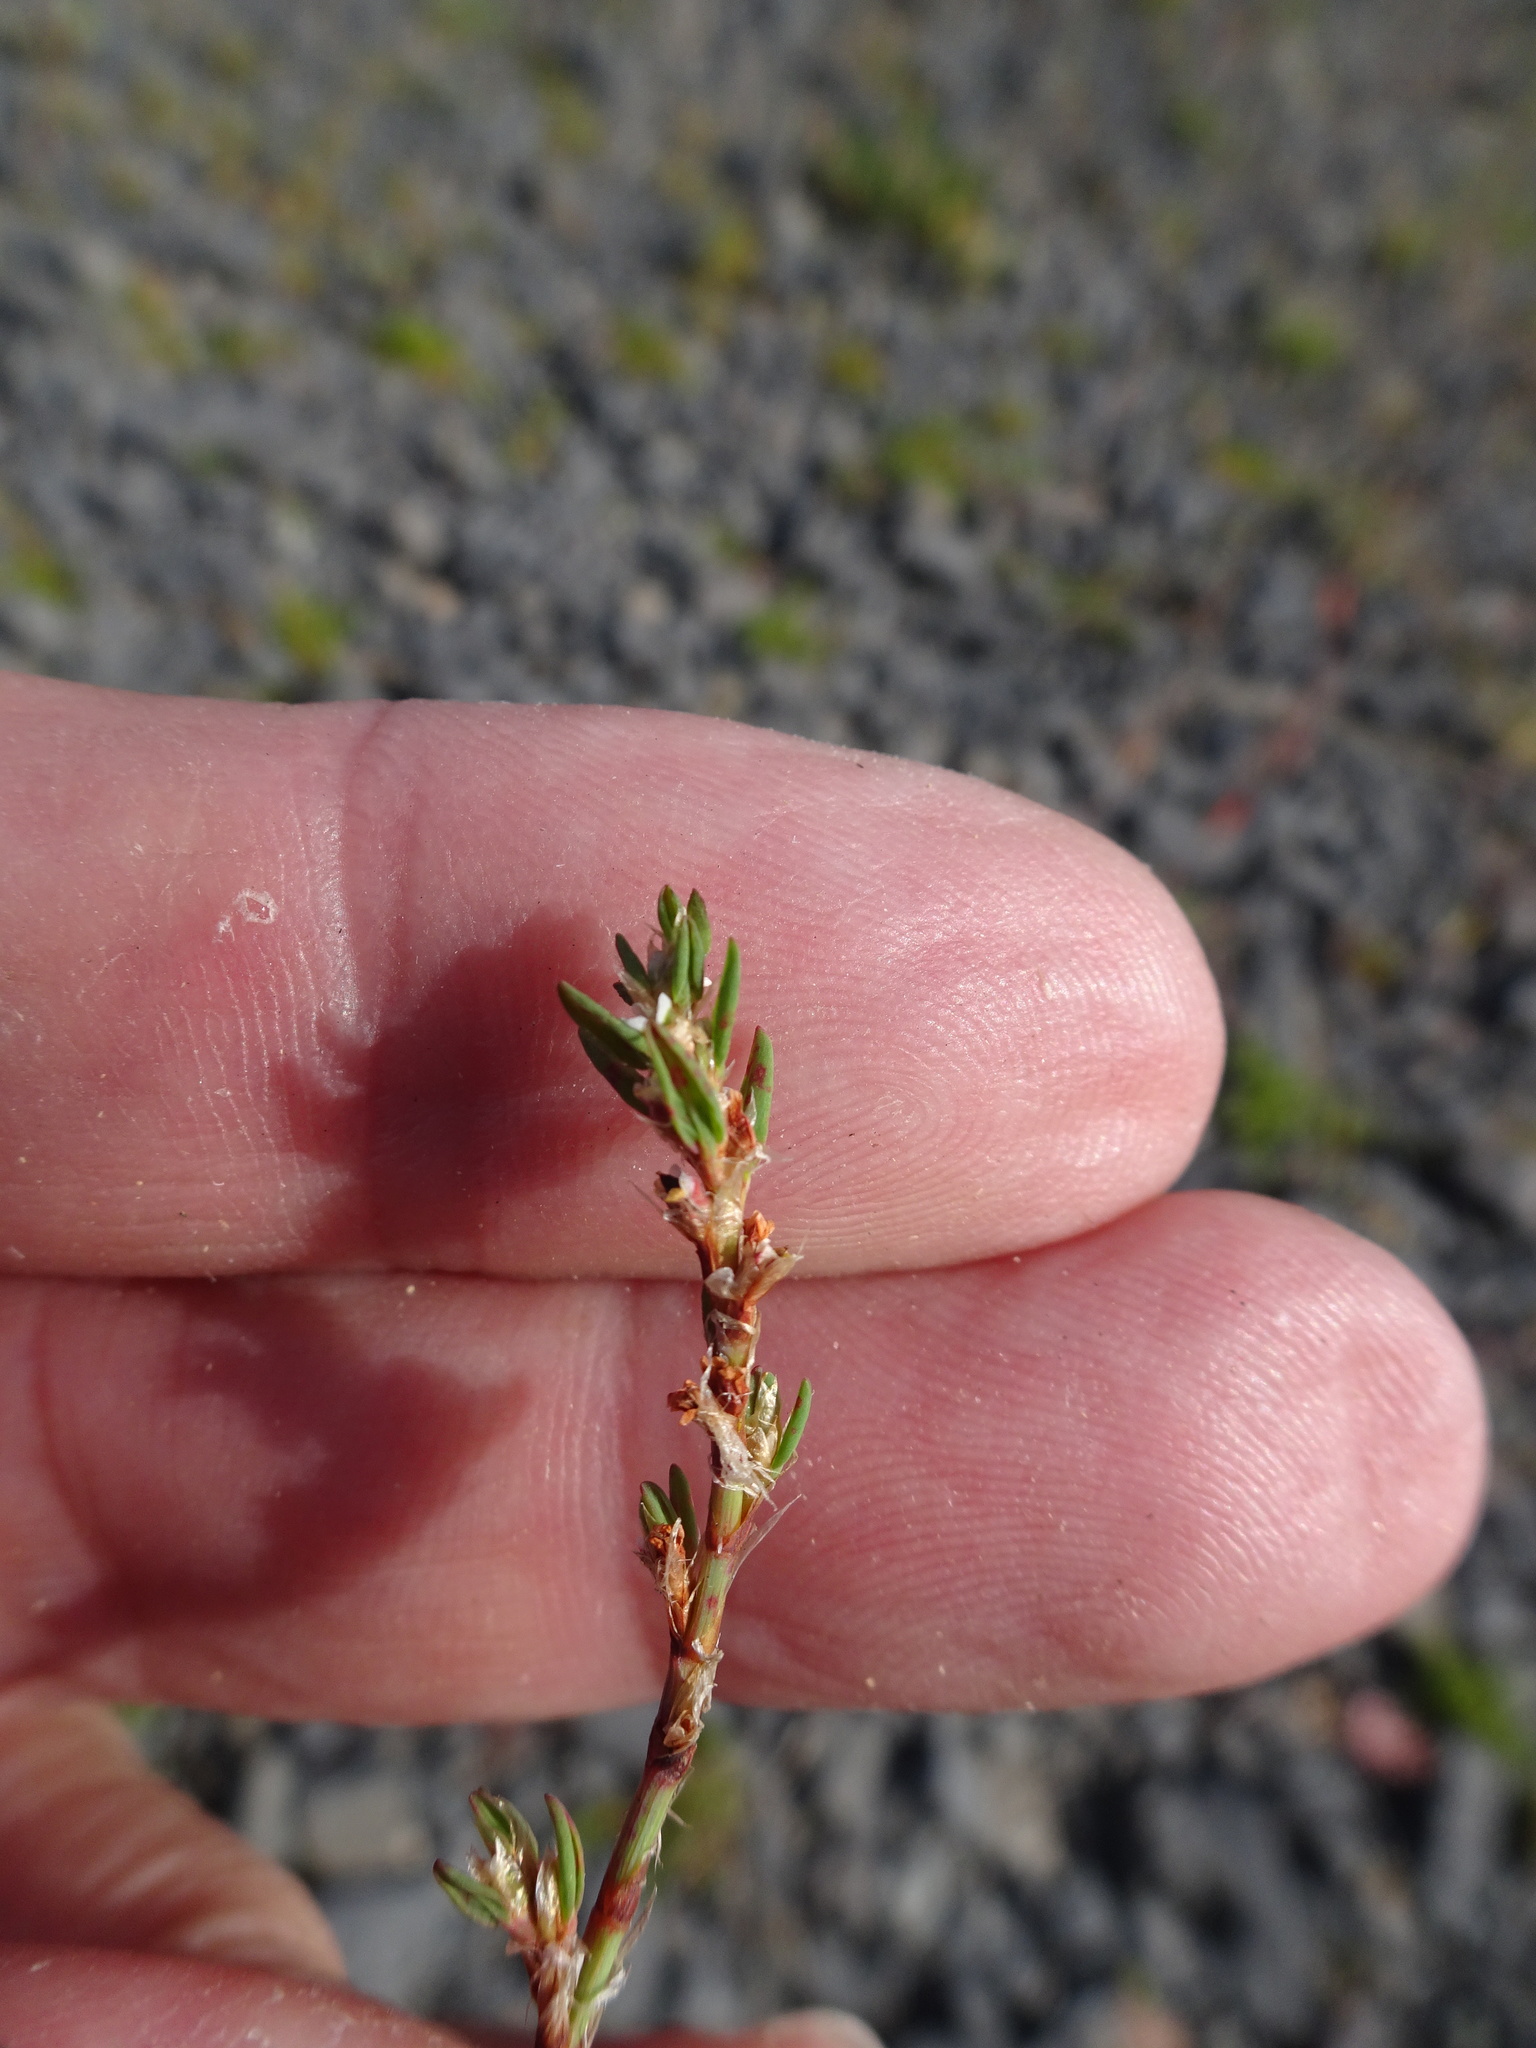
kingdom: Plantae
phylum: Tracheophyta
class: Magnoliopsida
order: Caryophyllales
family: Polygonaceae
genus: Polygonum
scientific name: Polygonum arenastrum
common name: Equal-leaved knotgrass
